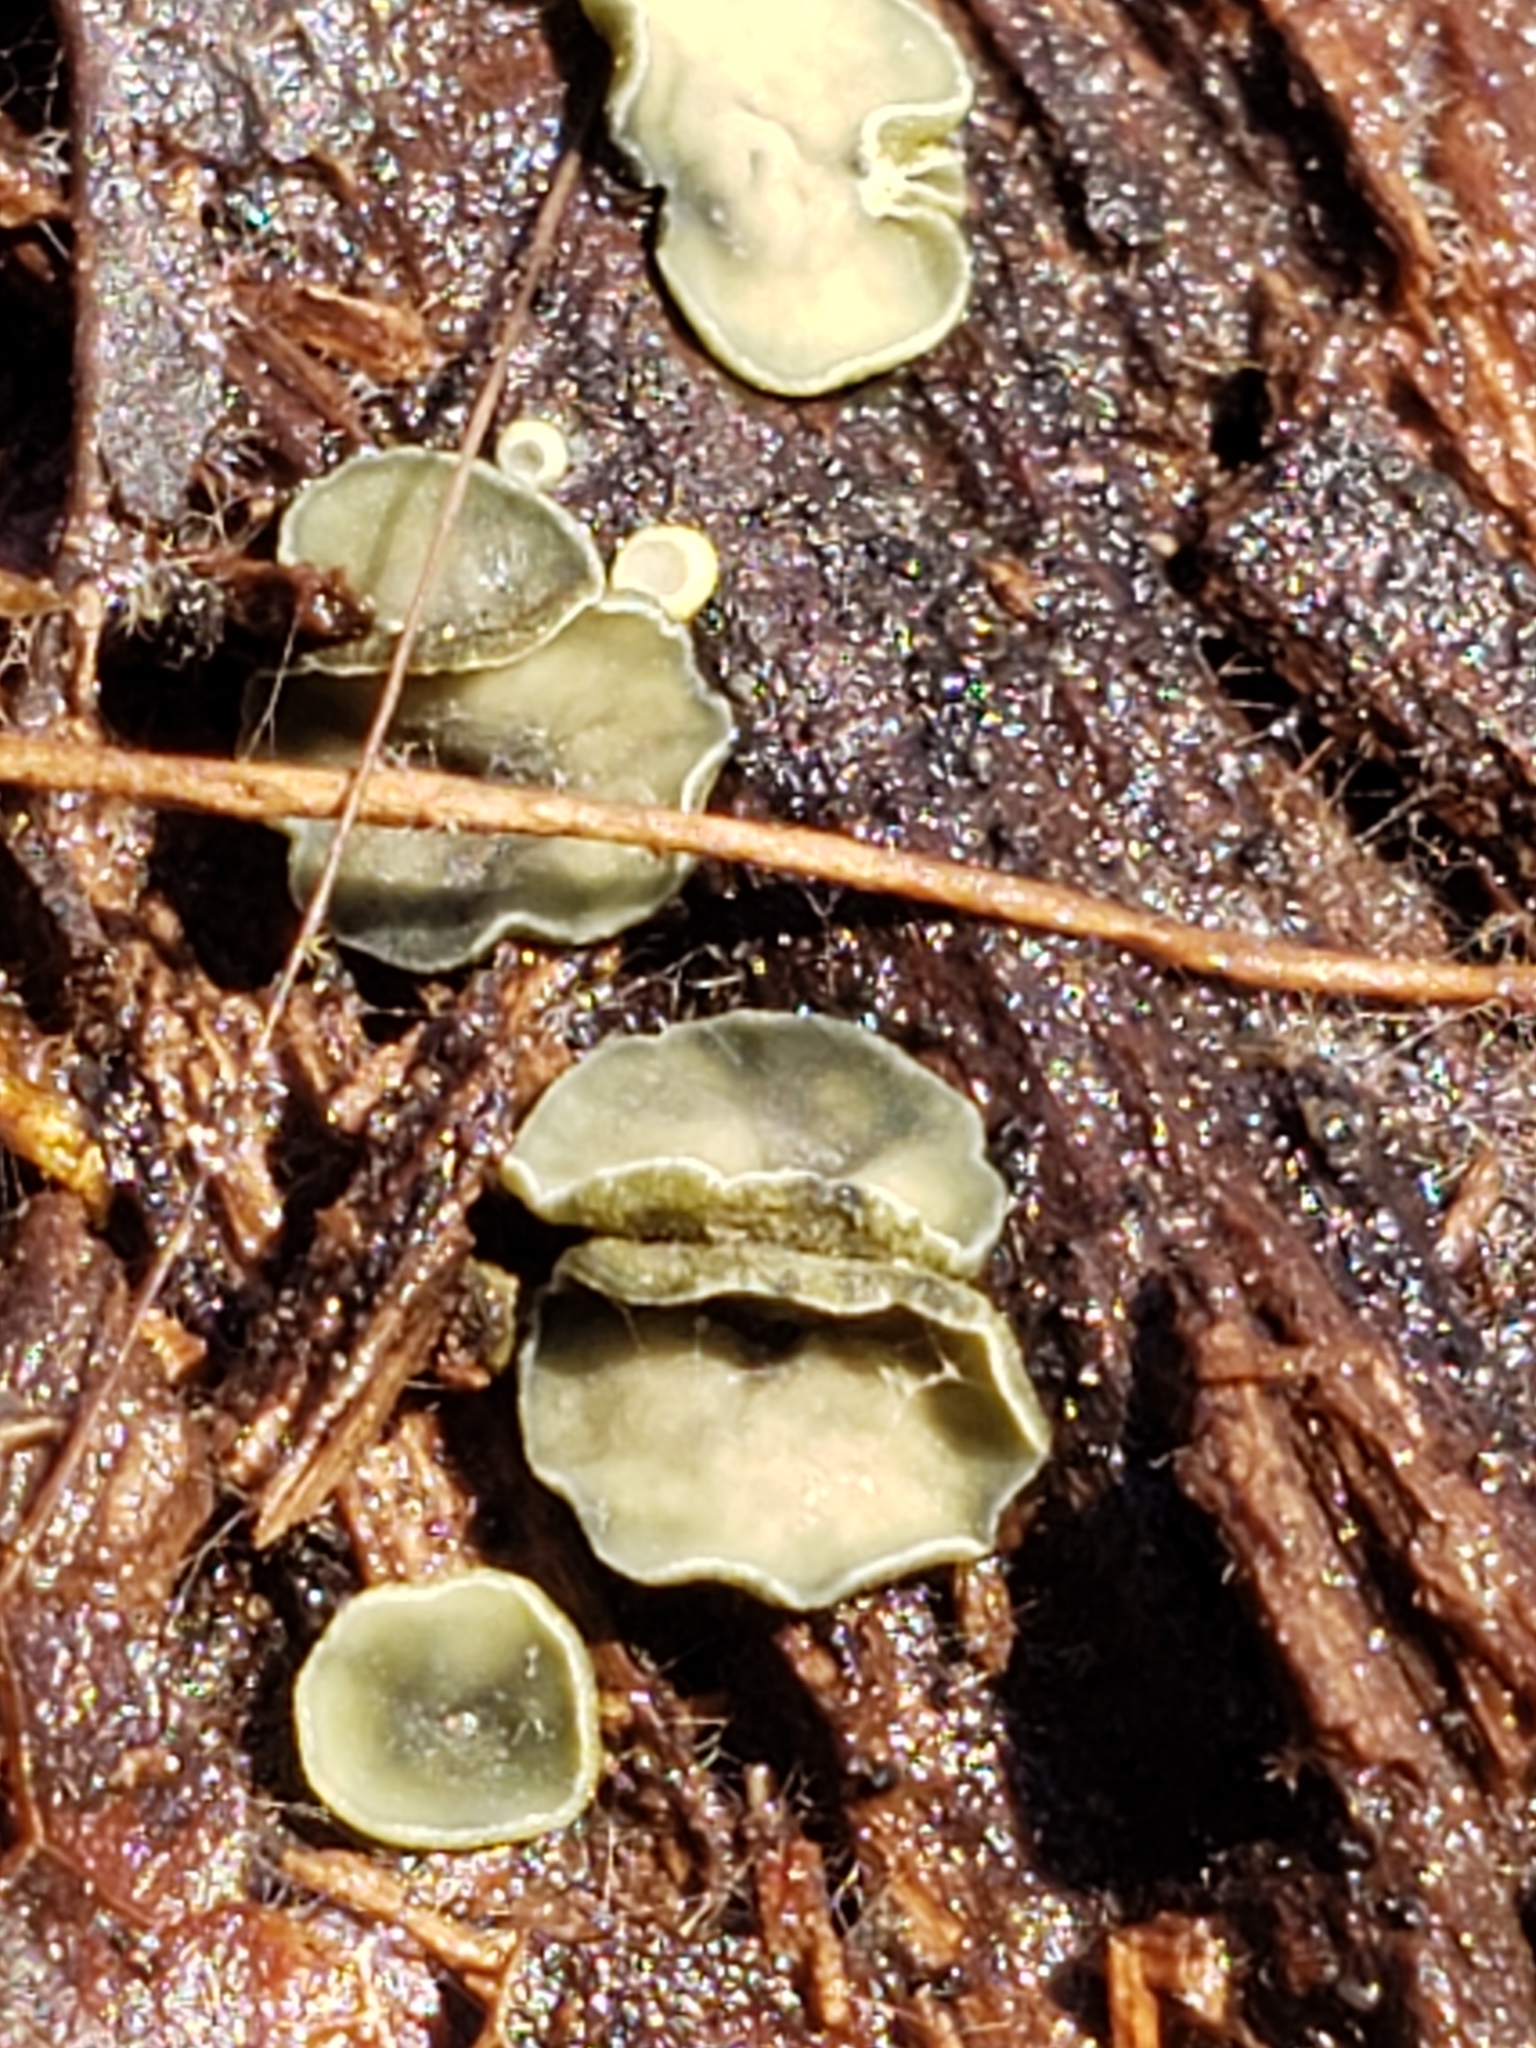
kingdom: Fungi
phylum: Ascomycota
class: Leotiomycetes
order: Helotiales
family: Chlorospleniaceae
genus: Chlorosplenium
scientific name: Chlorosplenium chlora
